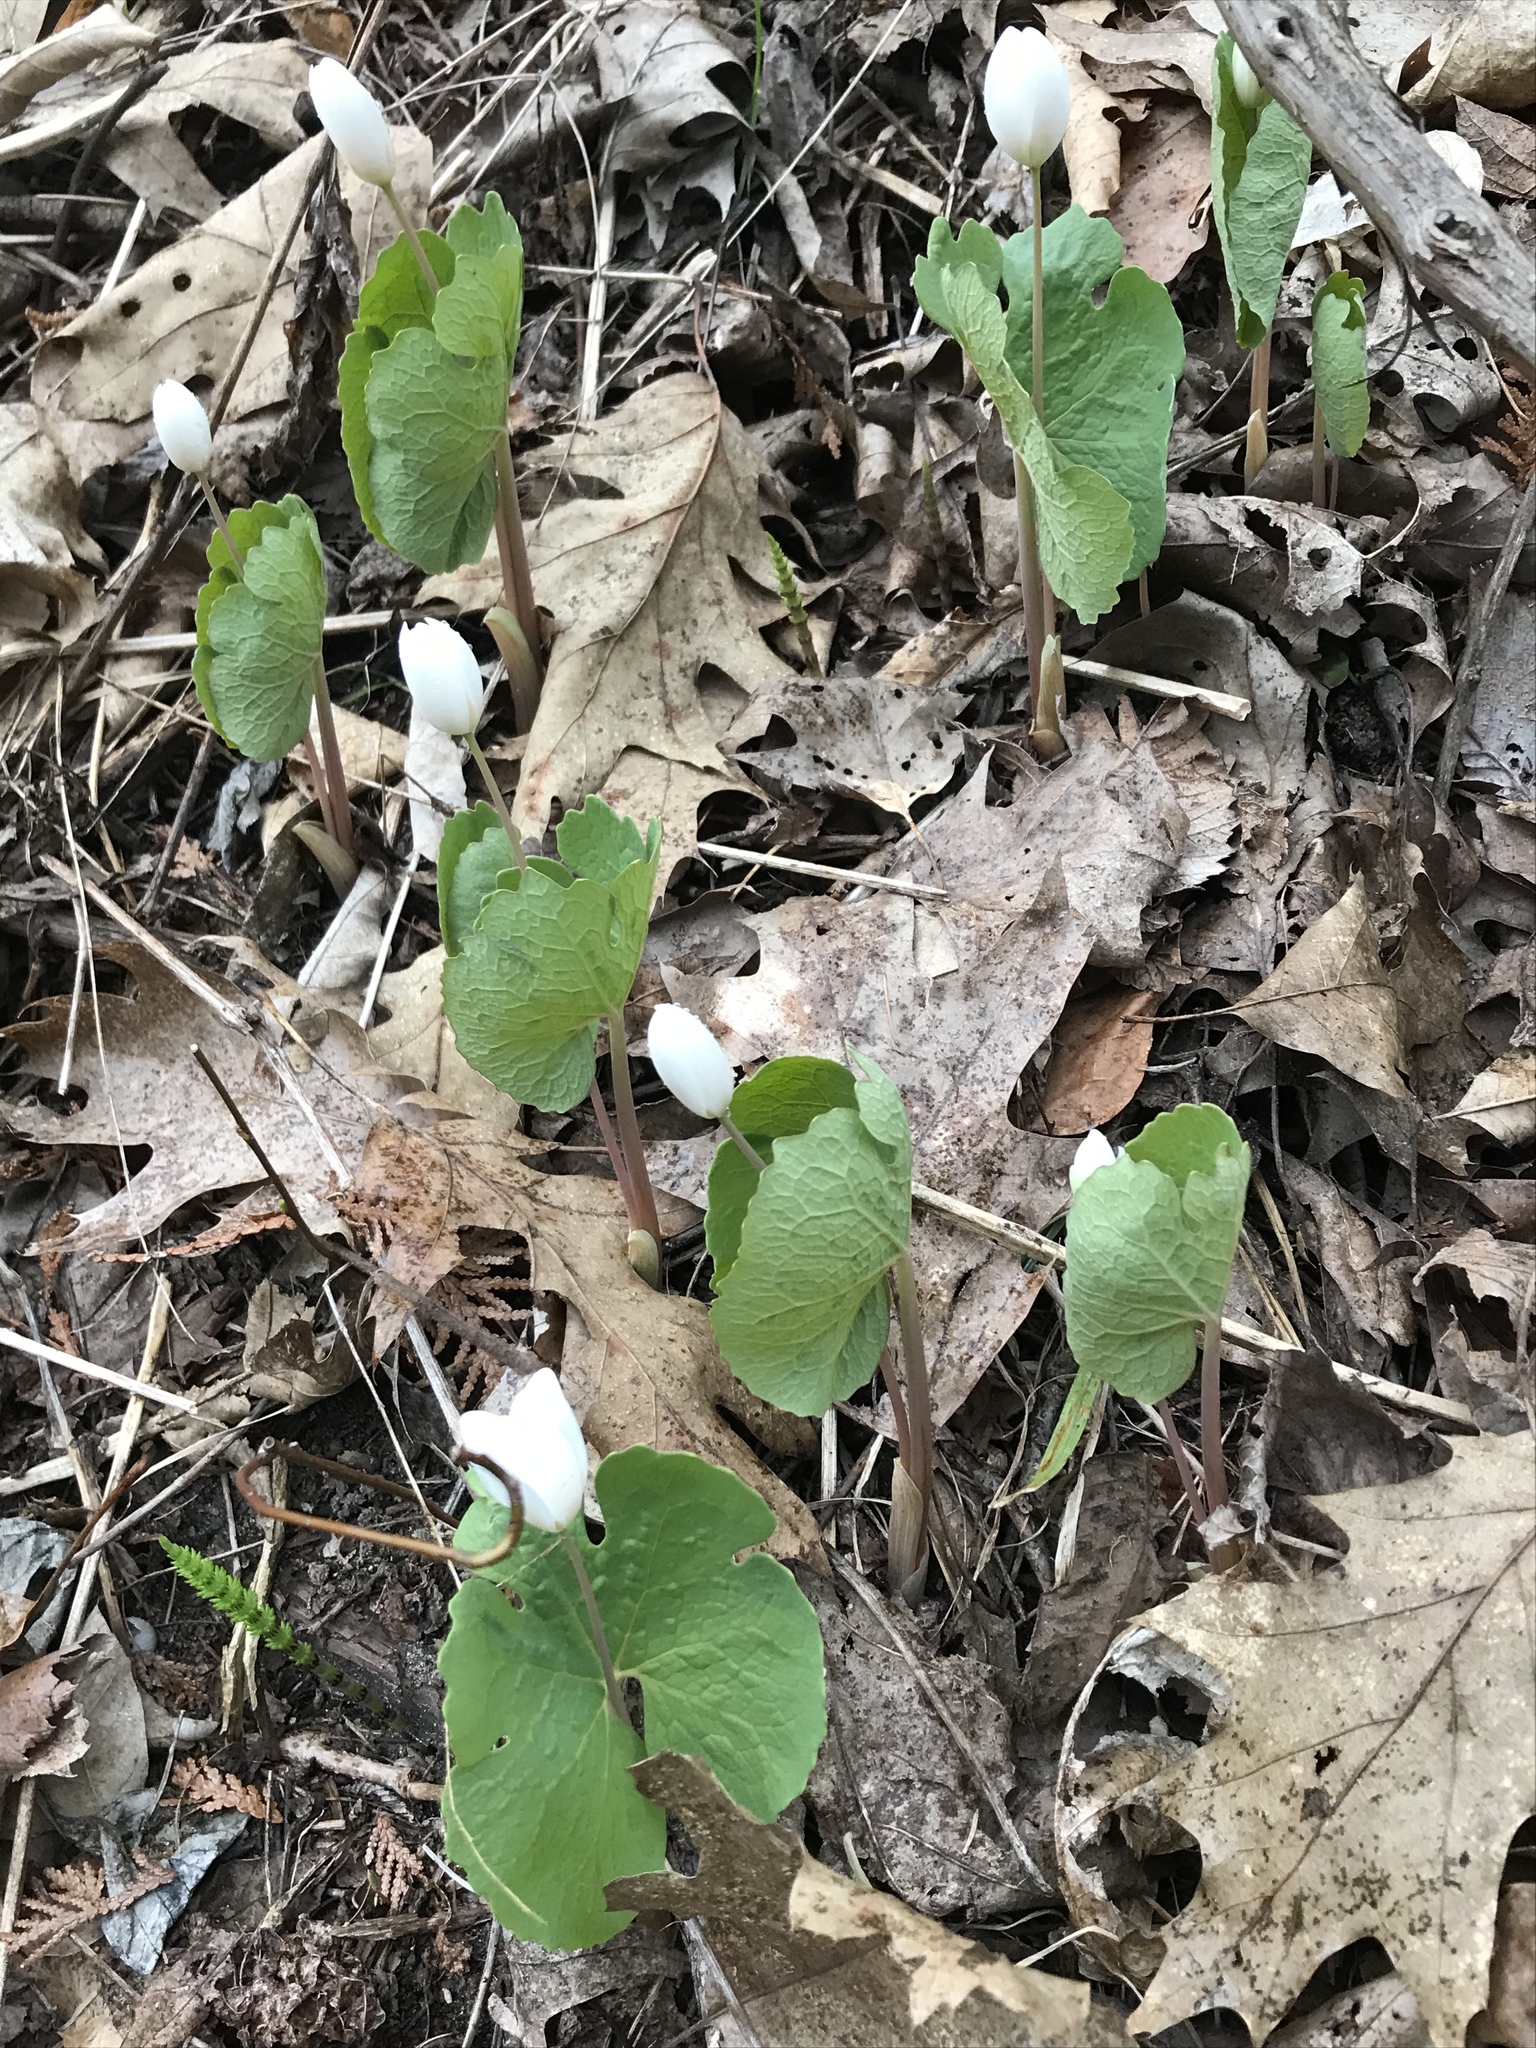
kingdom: Plantae
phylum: Tracheophyta
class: Magnoliopsida
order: Ranunculales
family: Papaveraceae
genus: Sanguinaria
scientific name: Sanguinaria canadensis
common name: Bloodroot
